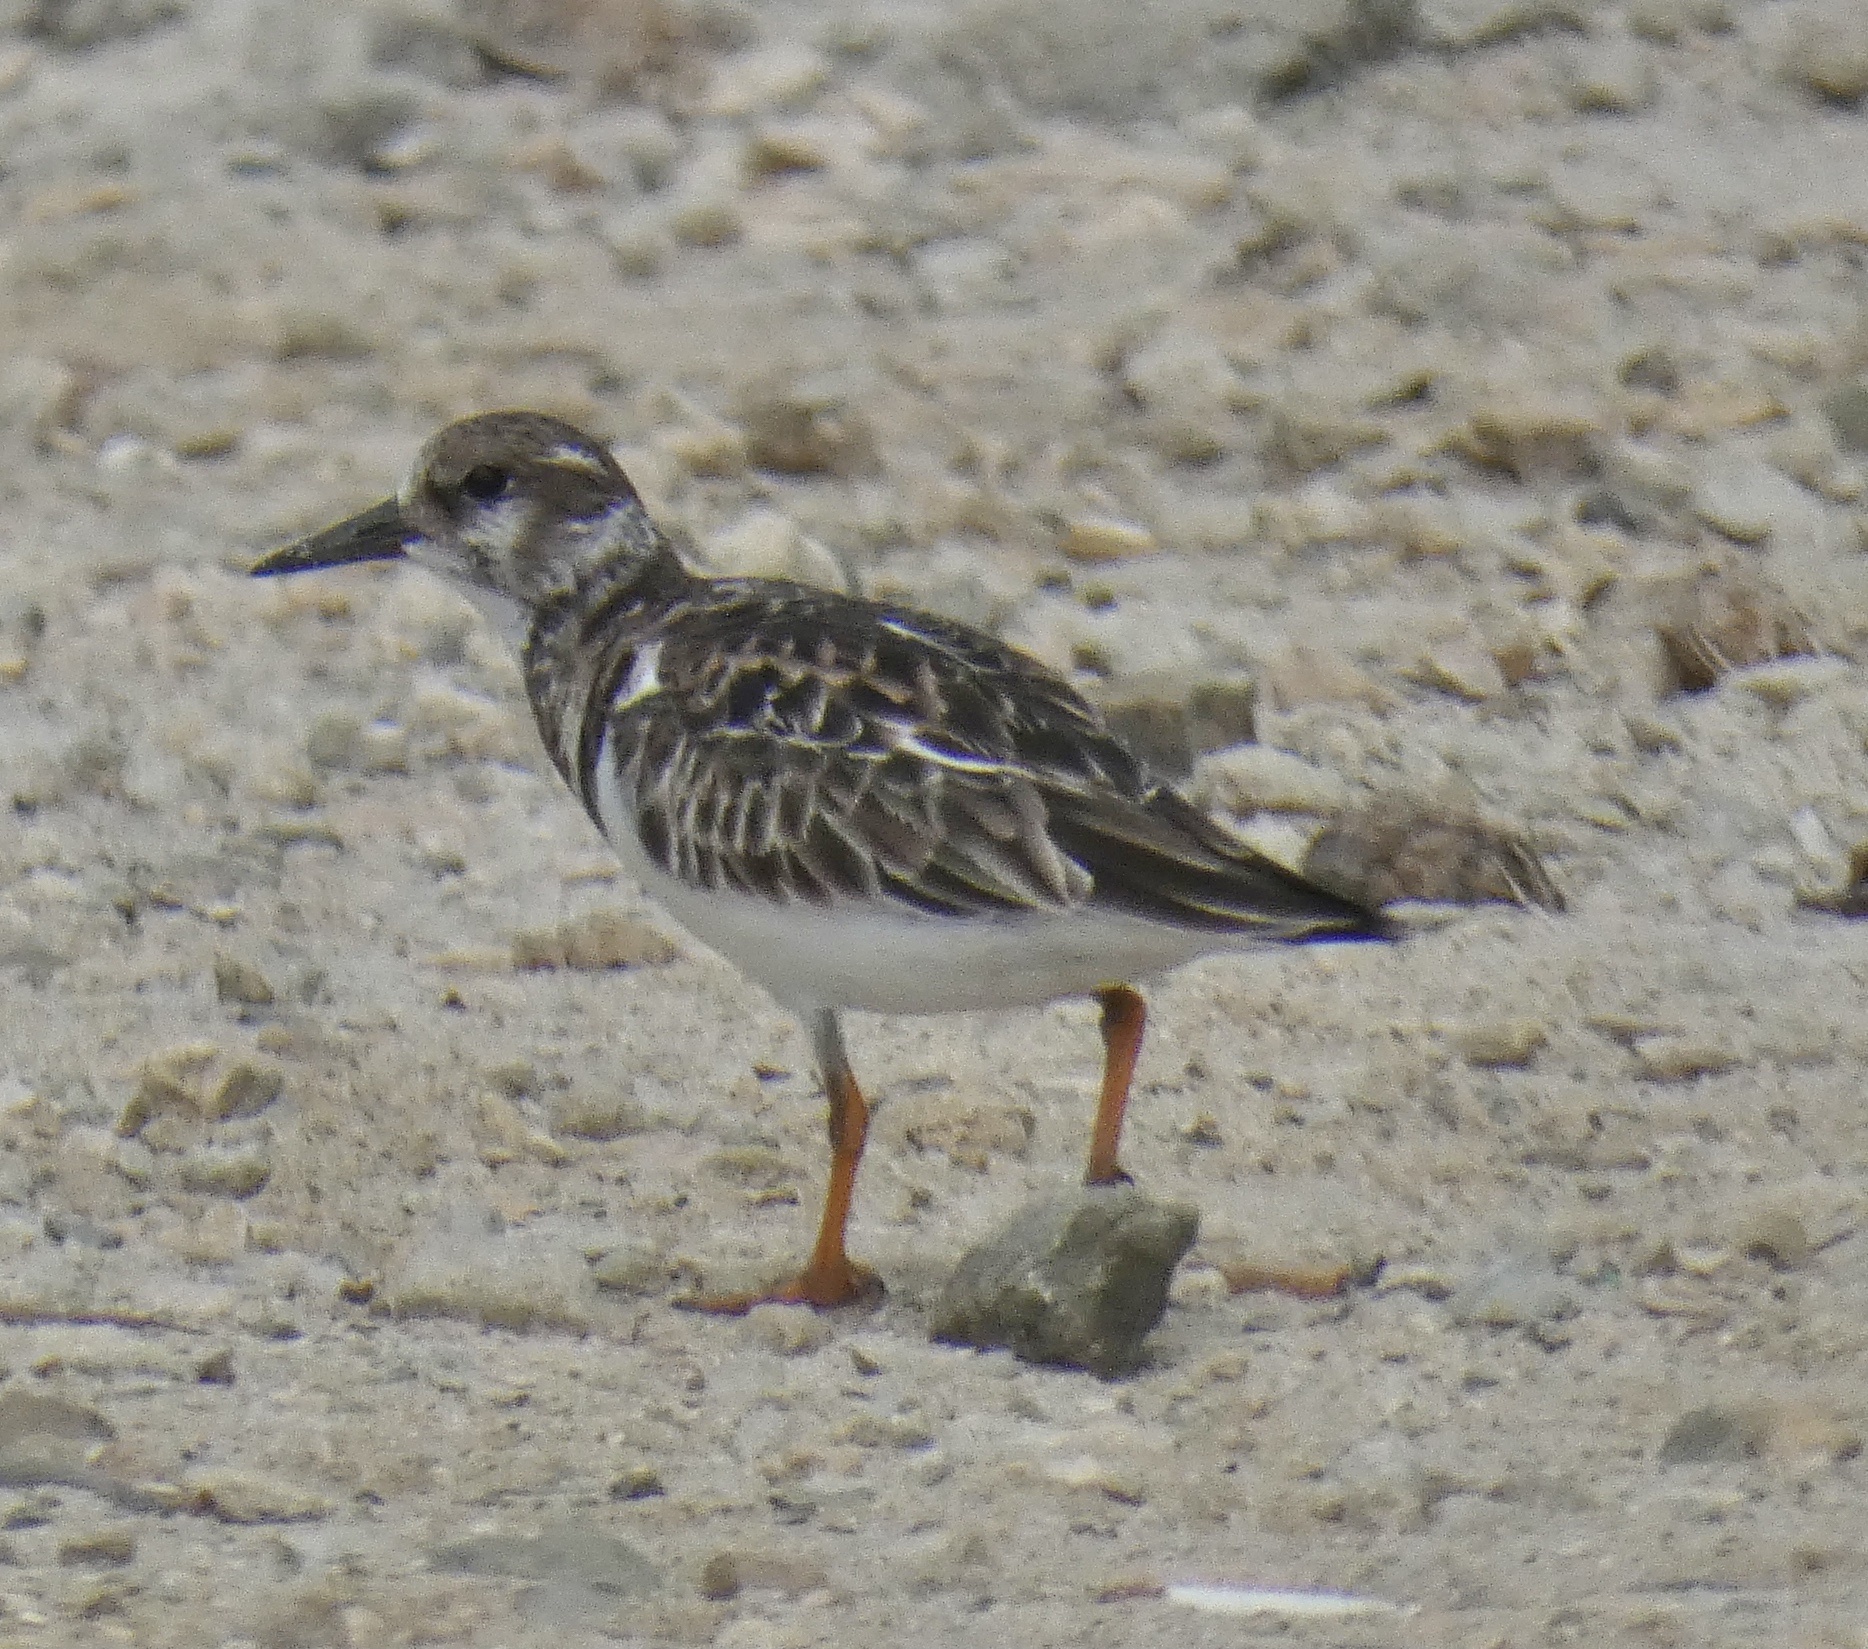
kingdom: Animalia
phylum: Chordata
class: Aves
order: Charadriiformes
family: Scolopacidae
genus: Arenaria
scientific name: Arenaria interpres
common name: Ruddy turnstone
